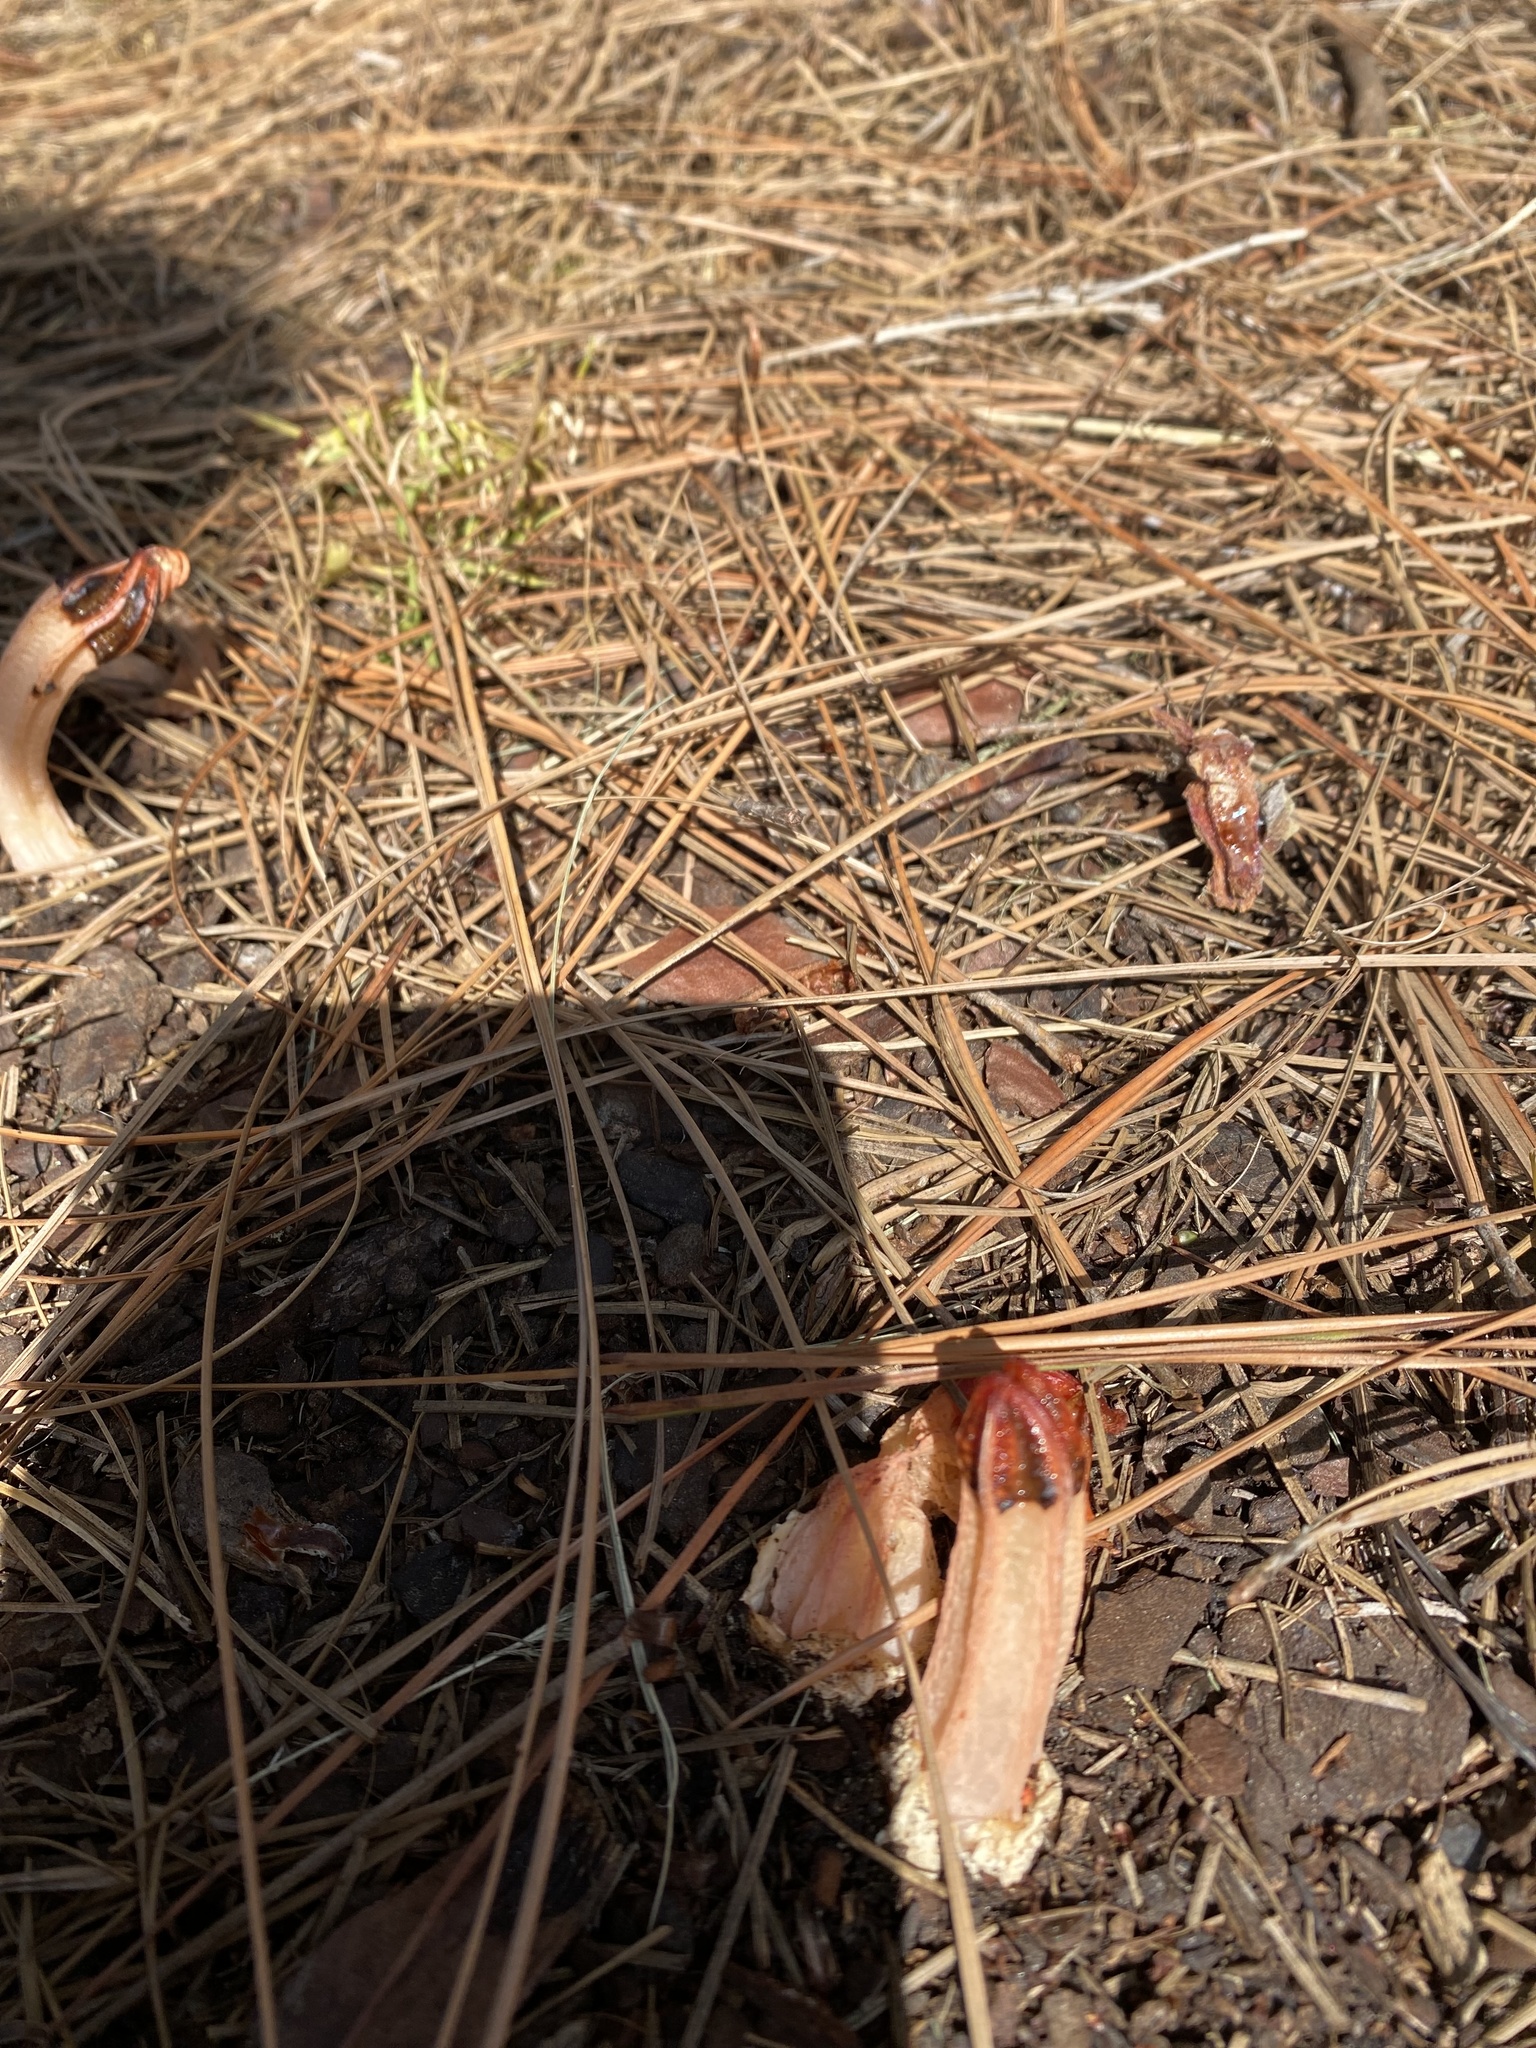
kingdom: Fungi
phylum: Basidiomycota
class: Agaricomycetes
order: Phallales
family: Phallaceae
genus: Lysurus
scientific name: Lysurus mokusin
